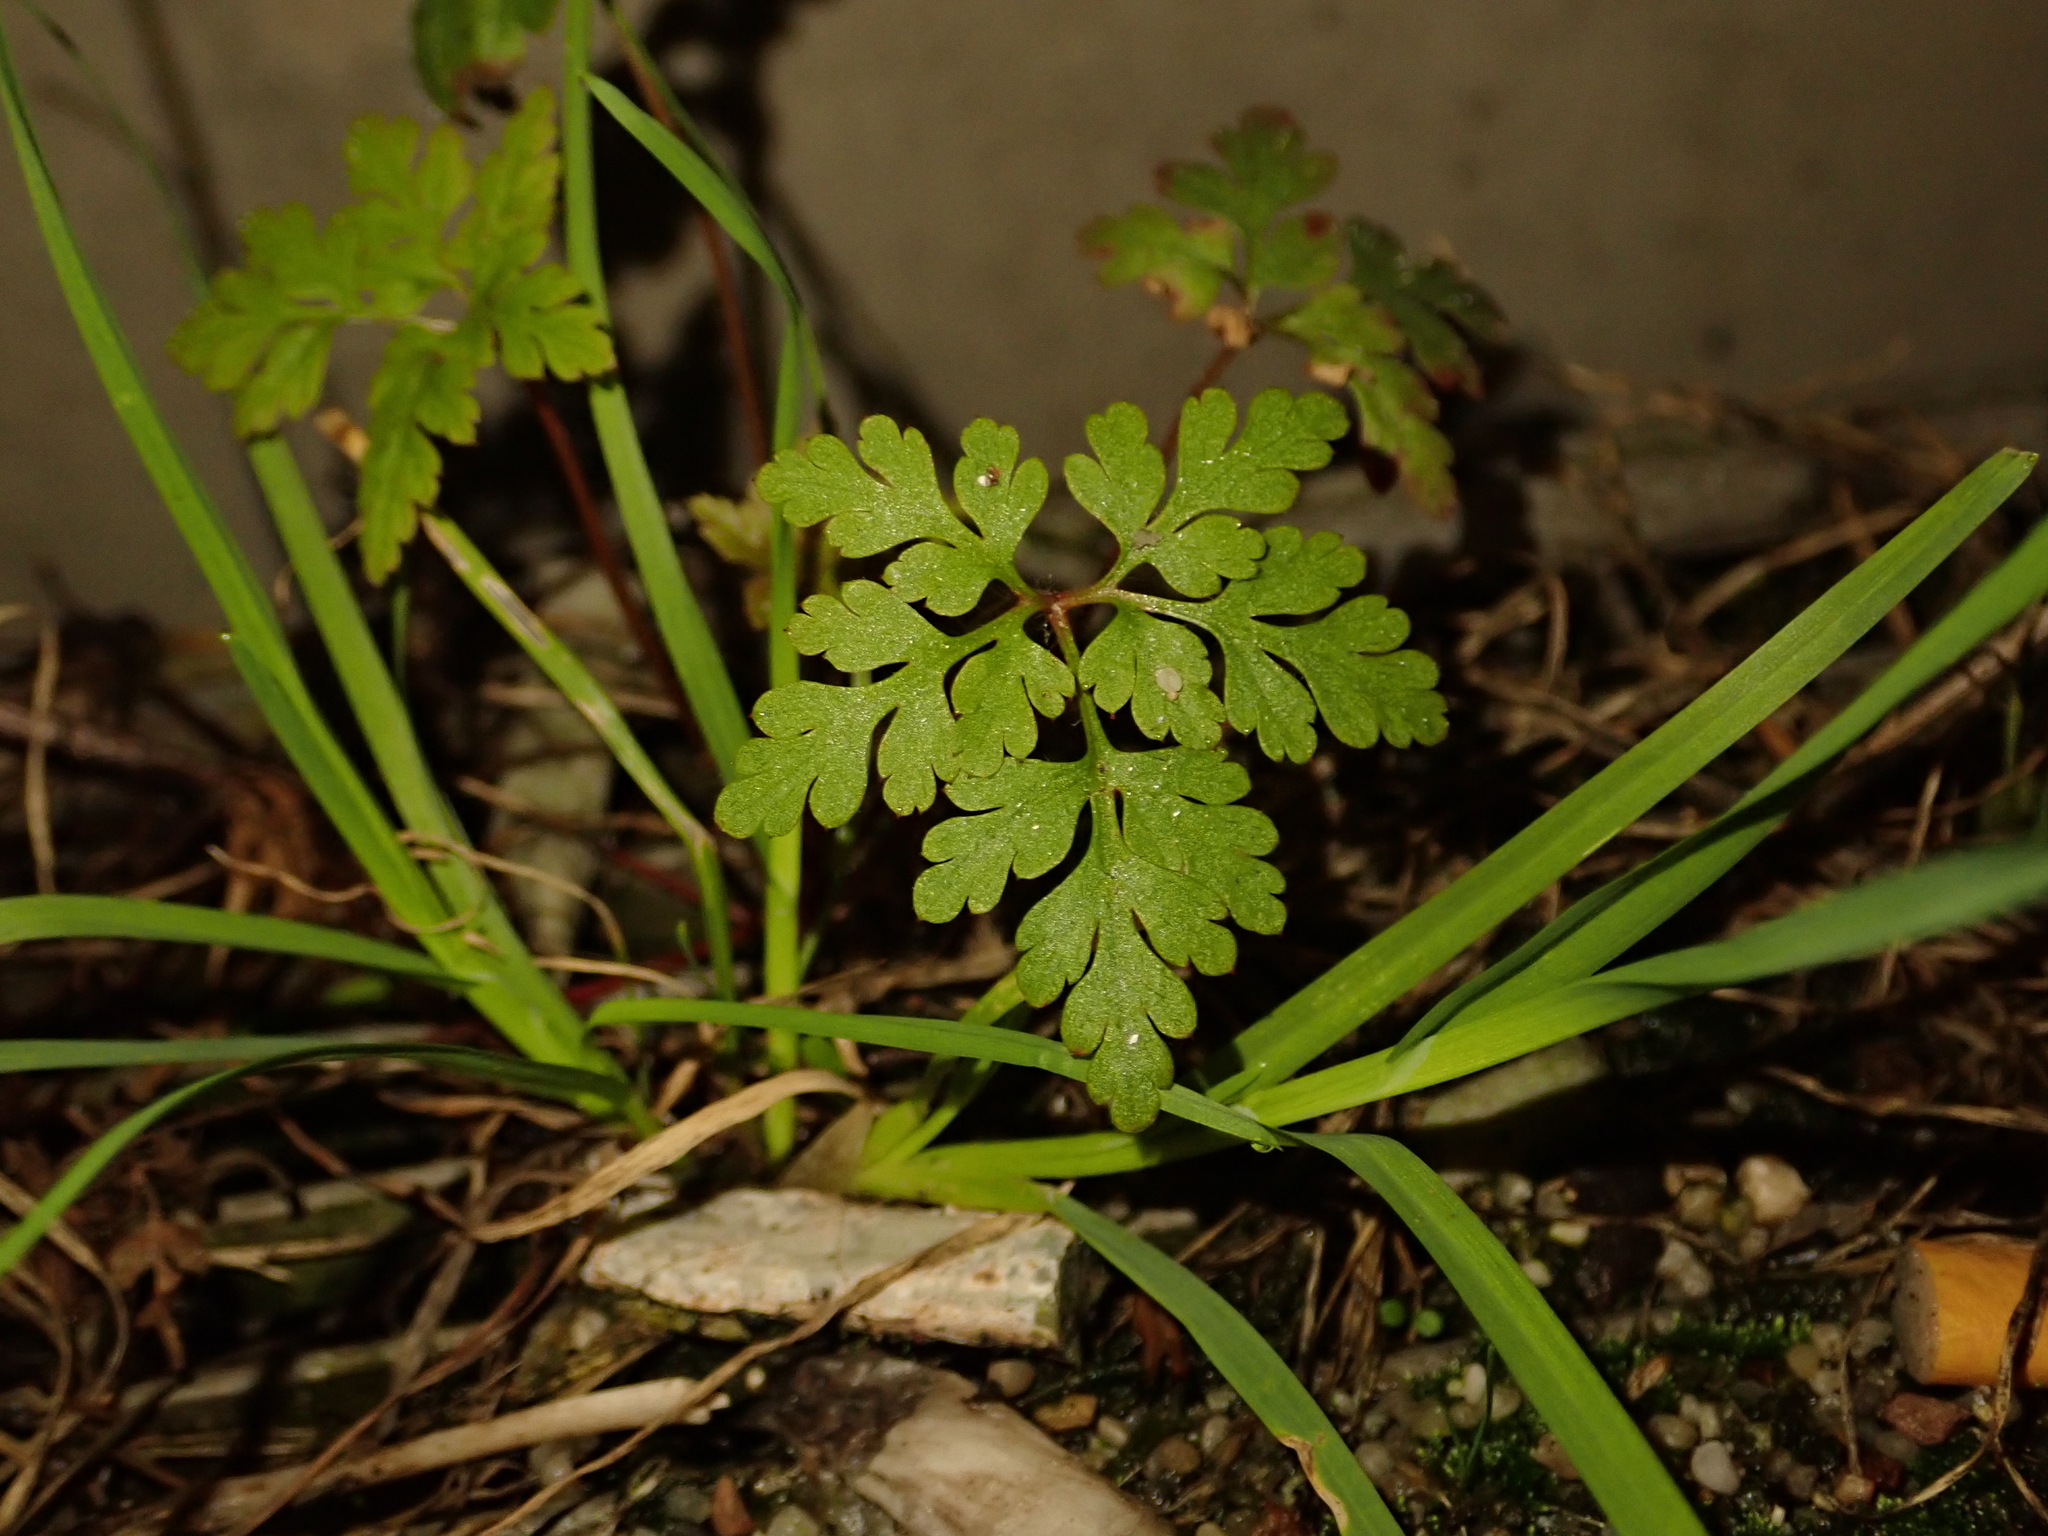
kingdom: Plantae
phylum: Tracheophyta
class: Magnoliopsida
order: Geraniales
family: Geraniaceae
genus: Geranium
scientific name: Geranium robertianum
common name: Herb-robert
